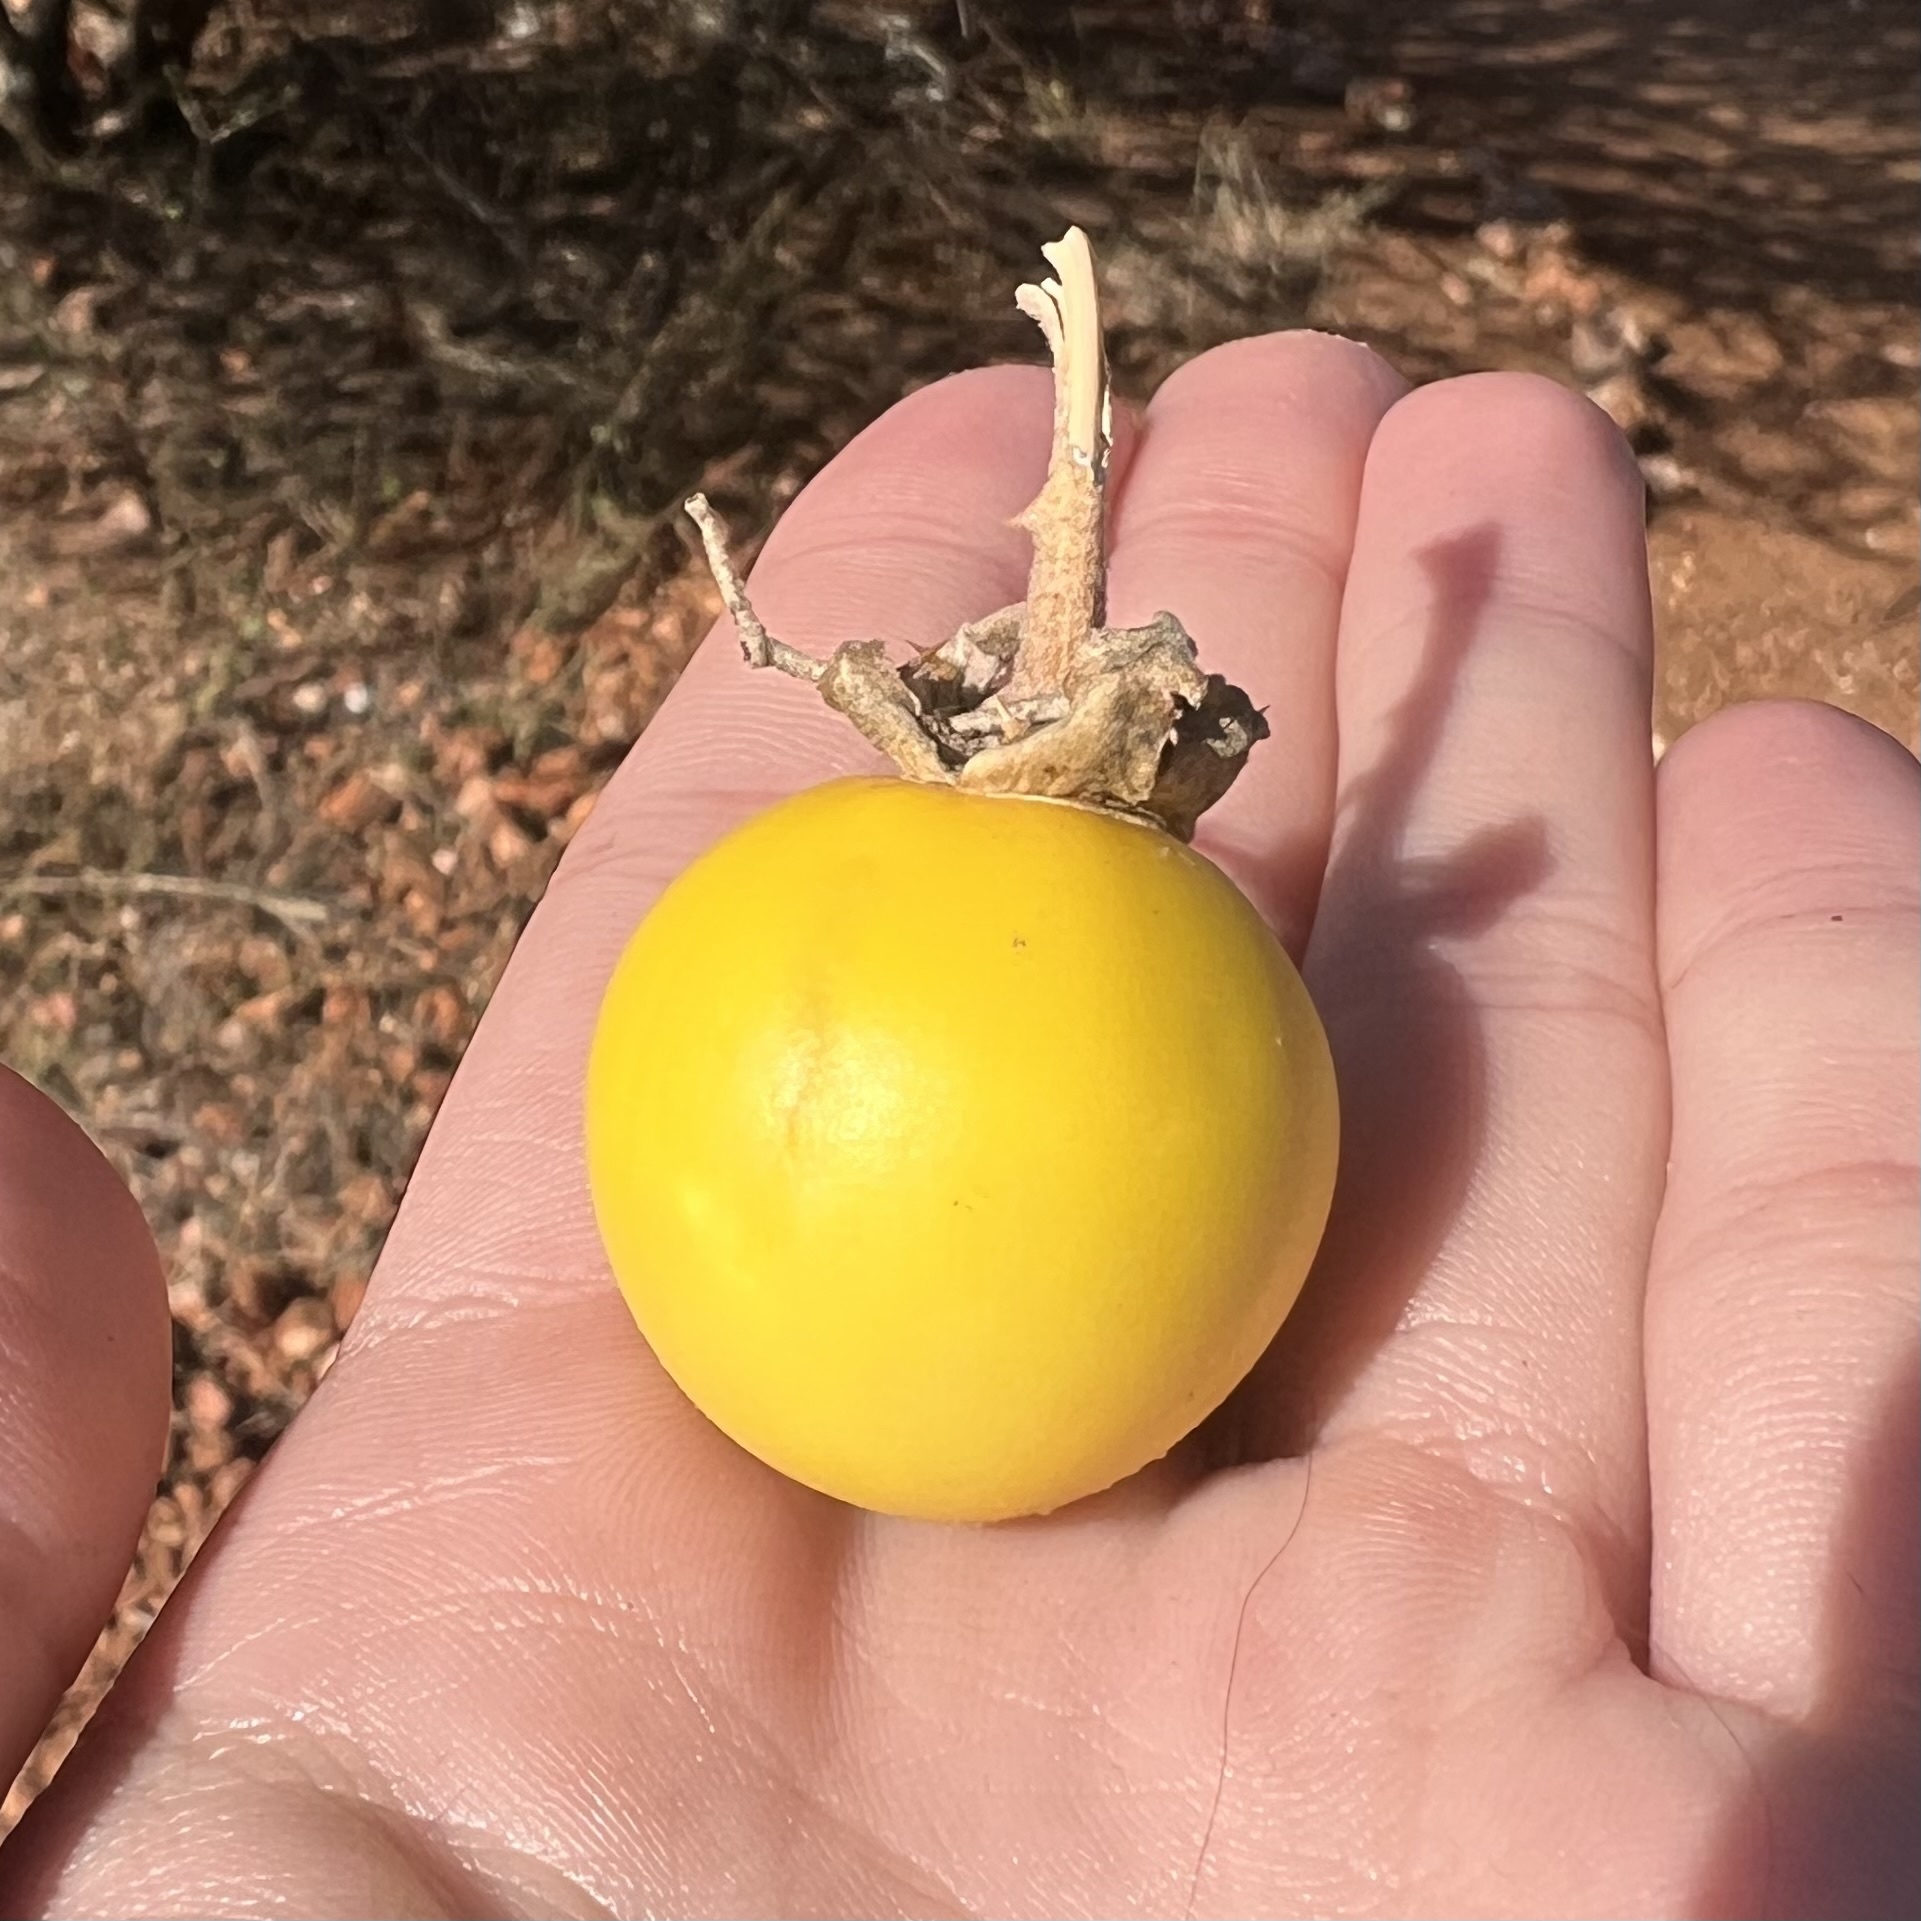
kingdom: Plantae
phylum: Tracheophyta
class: Magnoliopsida
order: Solanales
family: Solanaceae
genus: Solanum
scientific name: Solanum lichtensteinii
